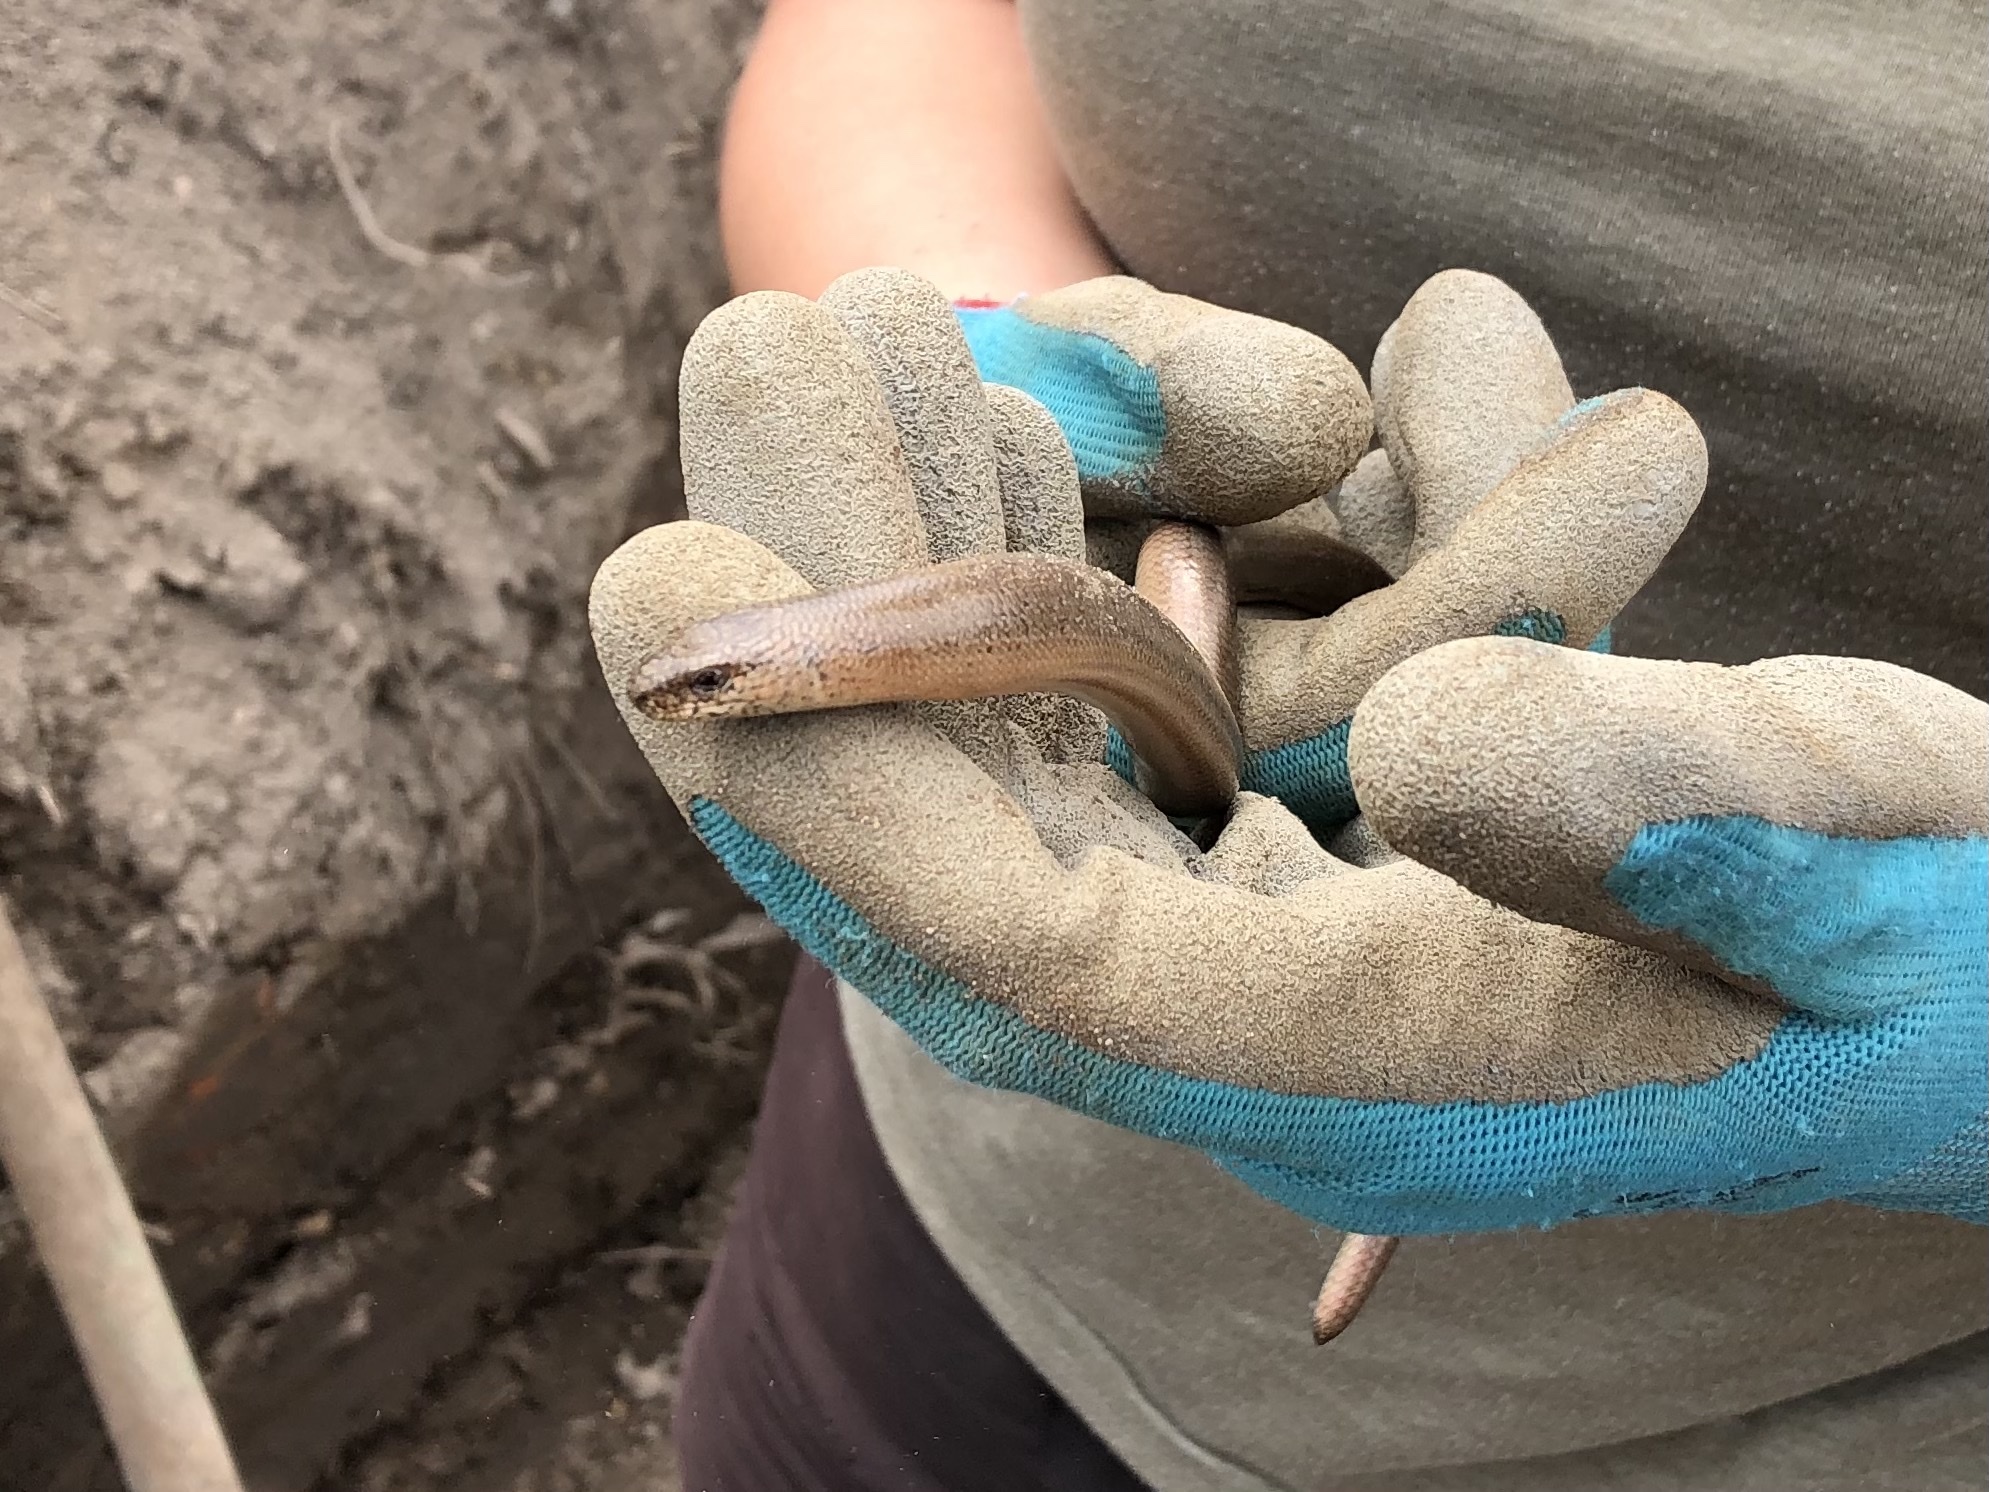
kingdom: Animalia
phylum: Chordata
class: Squamata
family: Anguidae
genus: Anguis
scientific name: Anguis fragilis
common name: Slow worm
